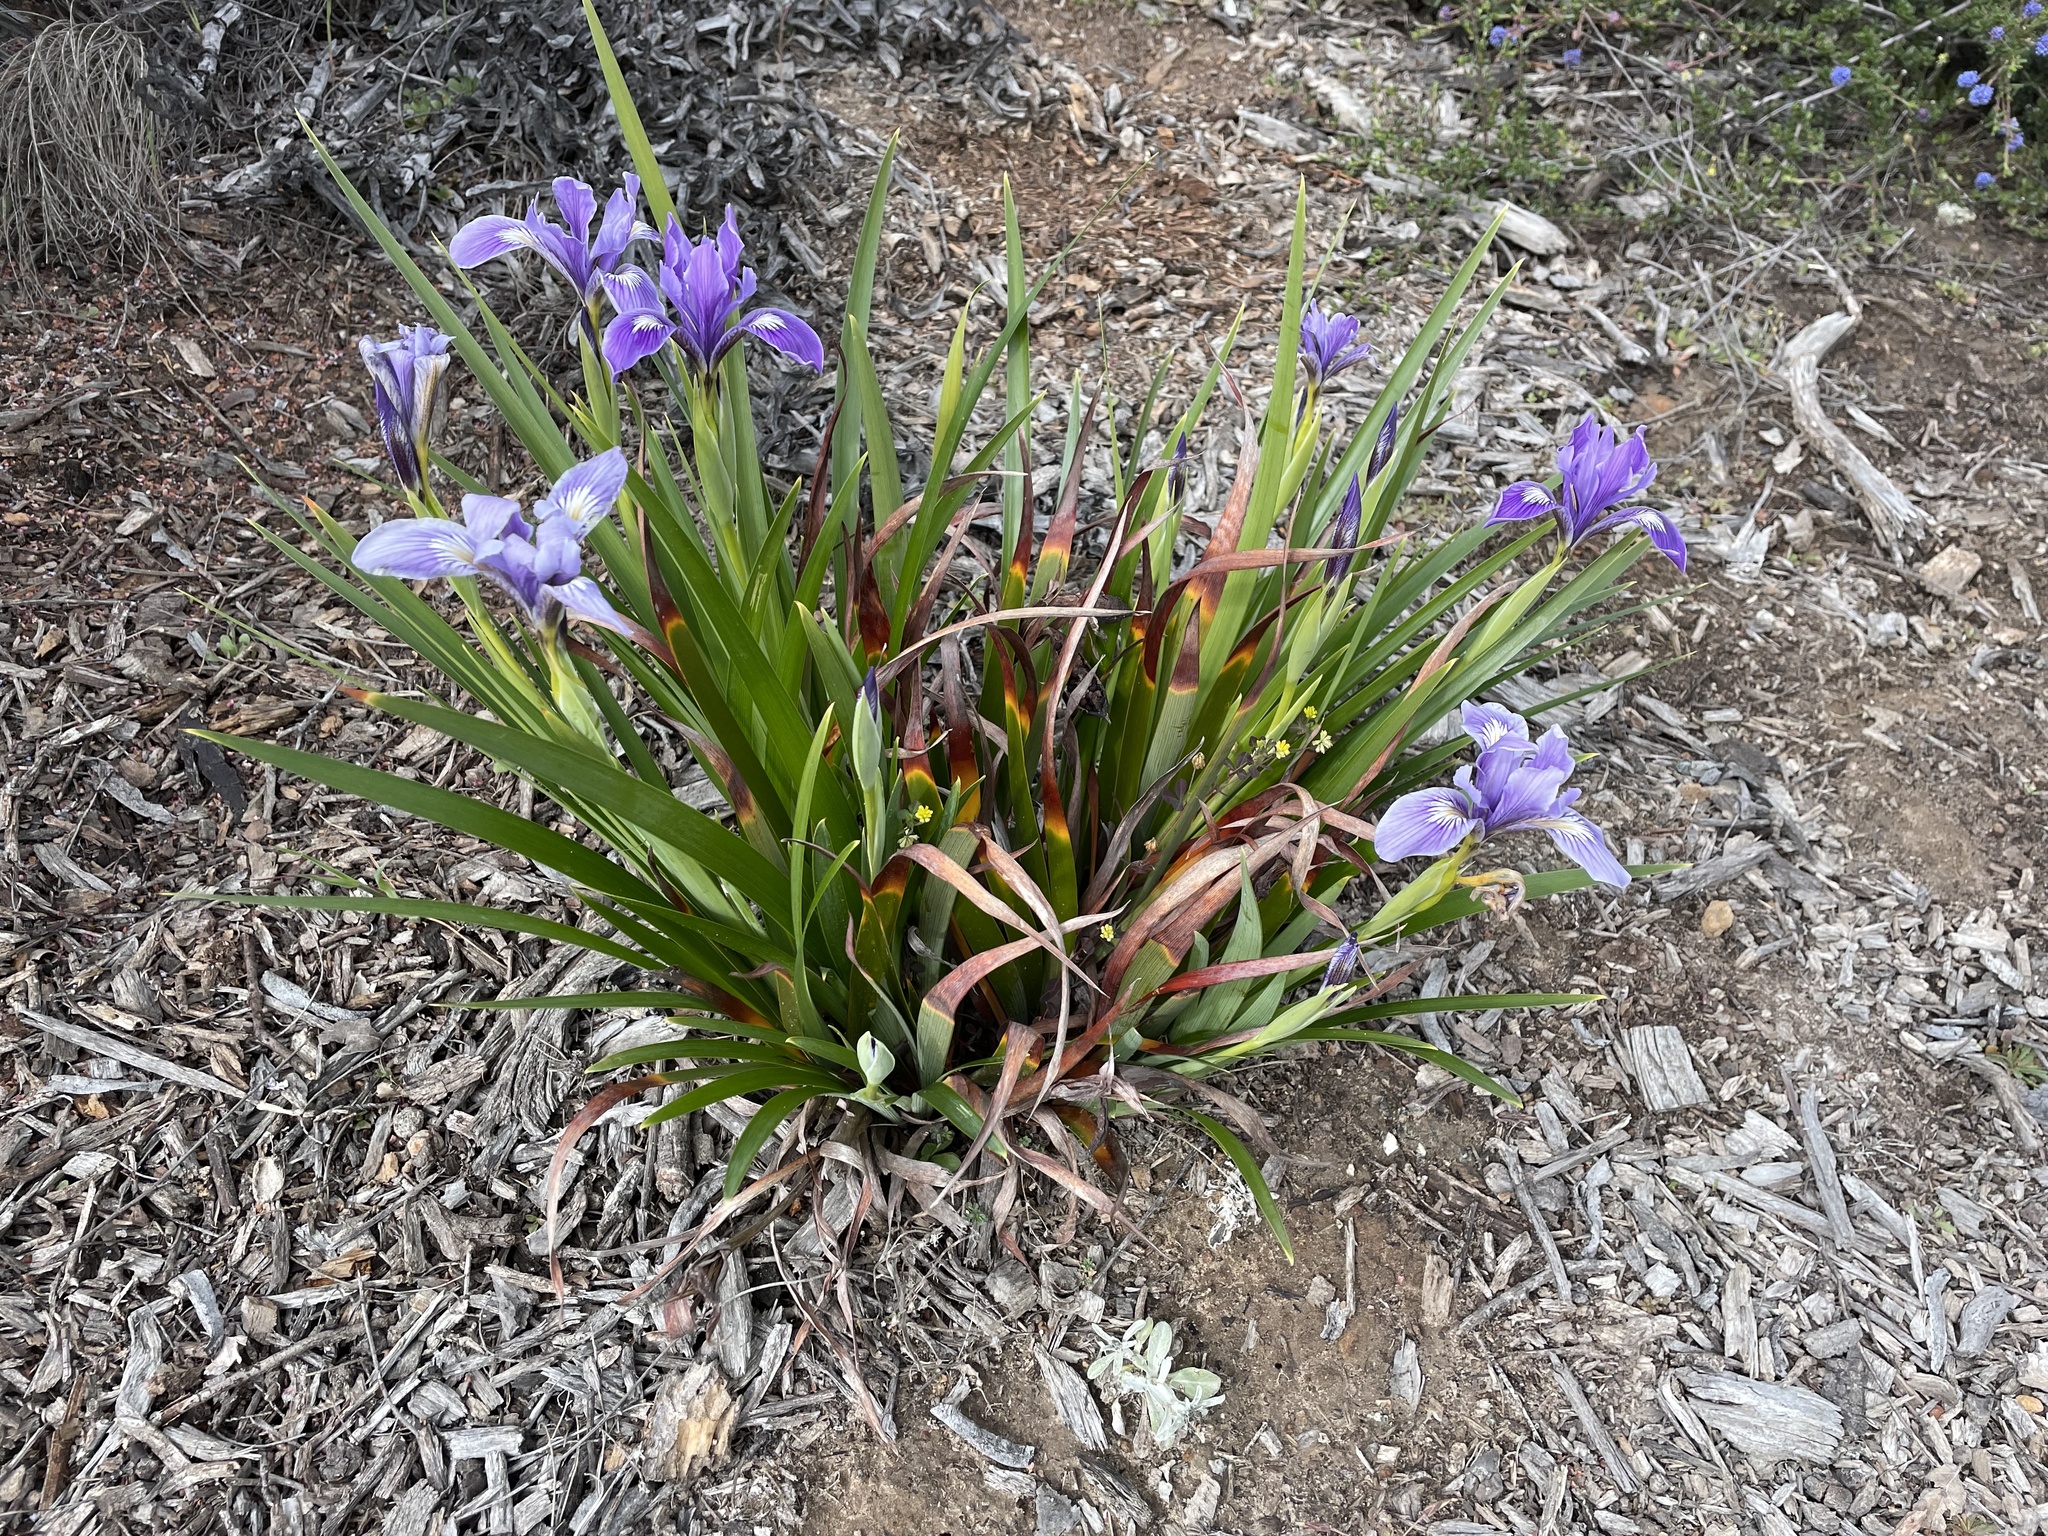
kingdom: Plantae
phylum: Tracheophyta
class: Liliopsida
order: Asparagales
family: Iridaceae
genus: Iris
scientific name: Iris douglasiana
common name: Marin iris
